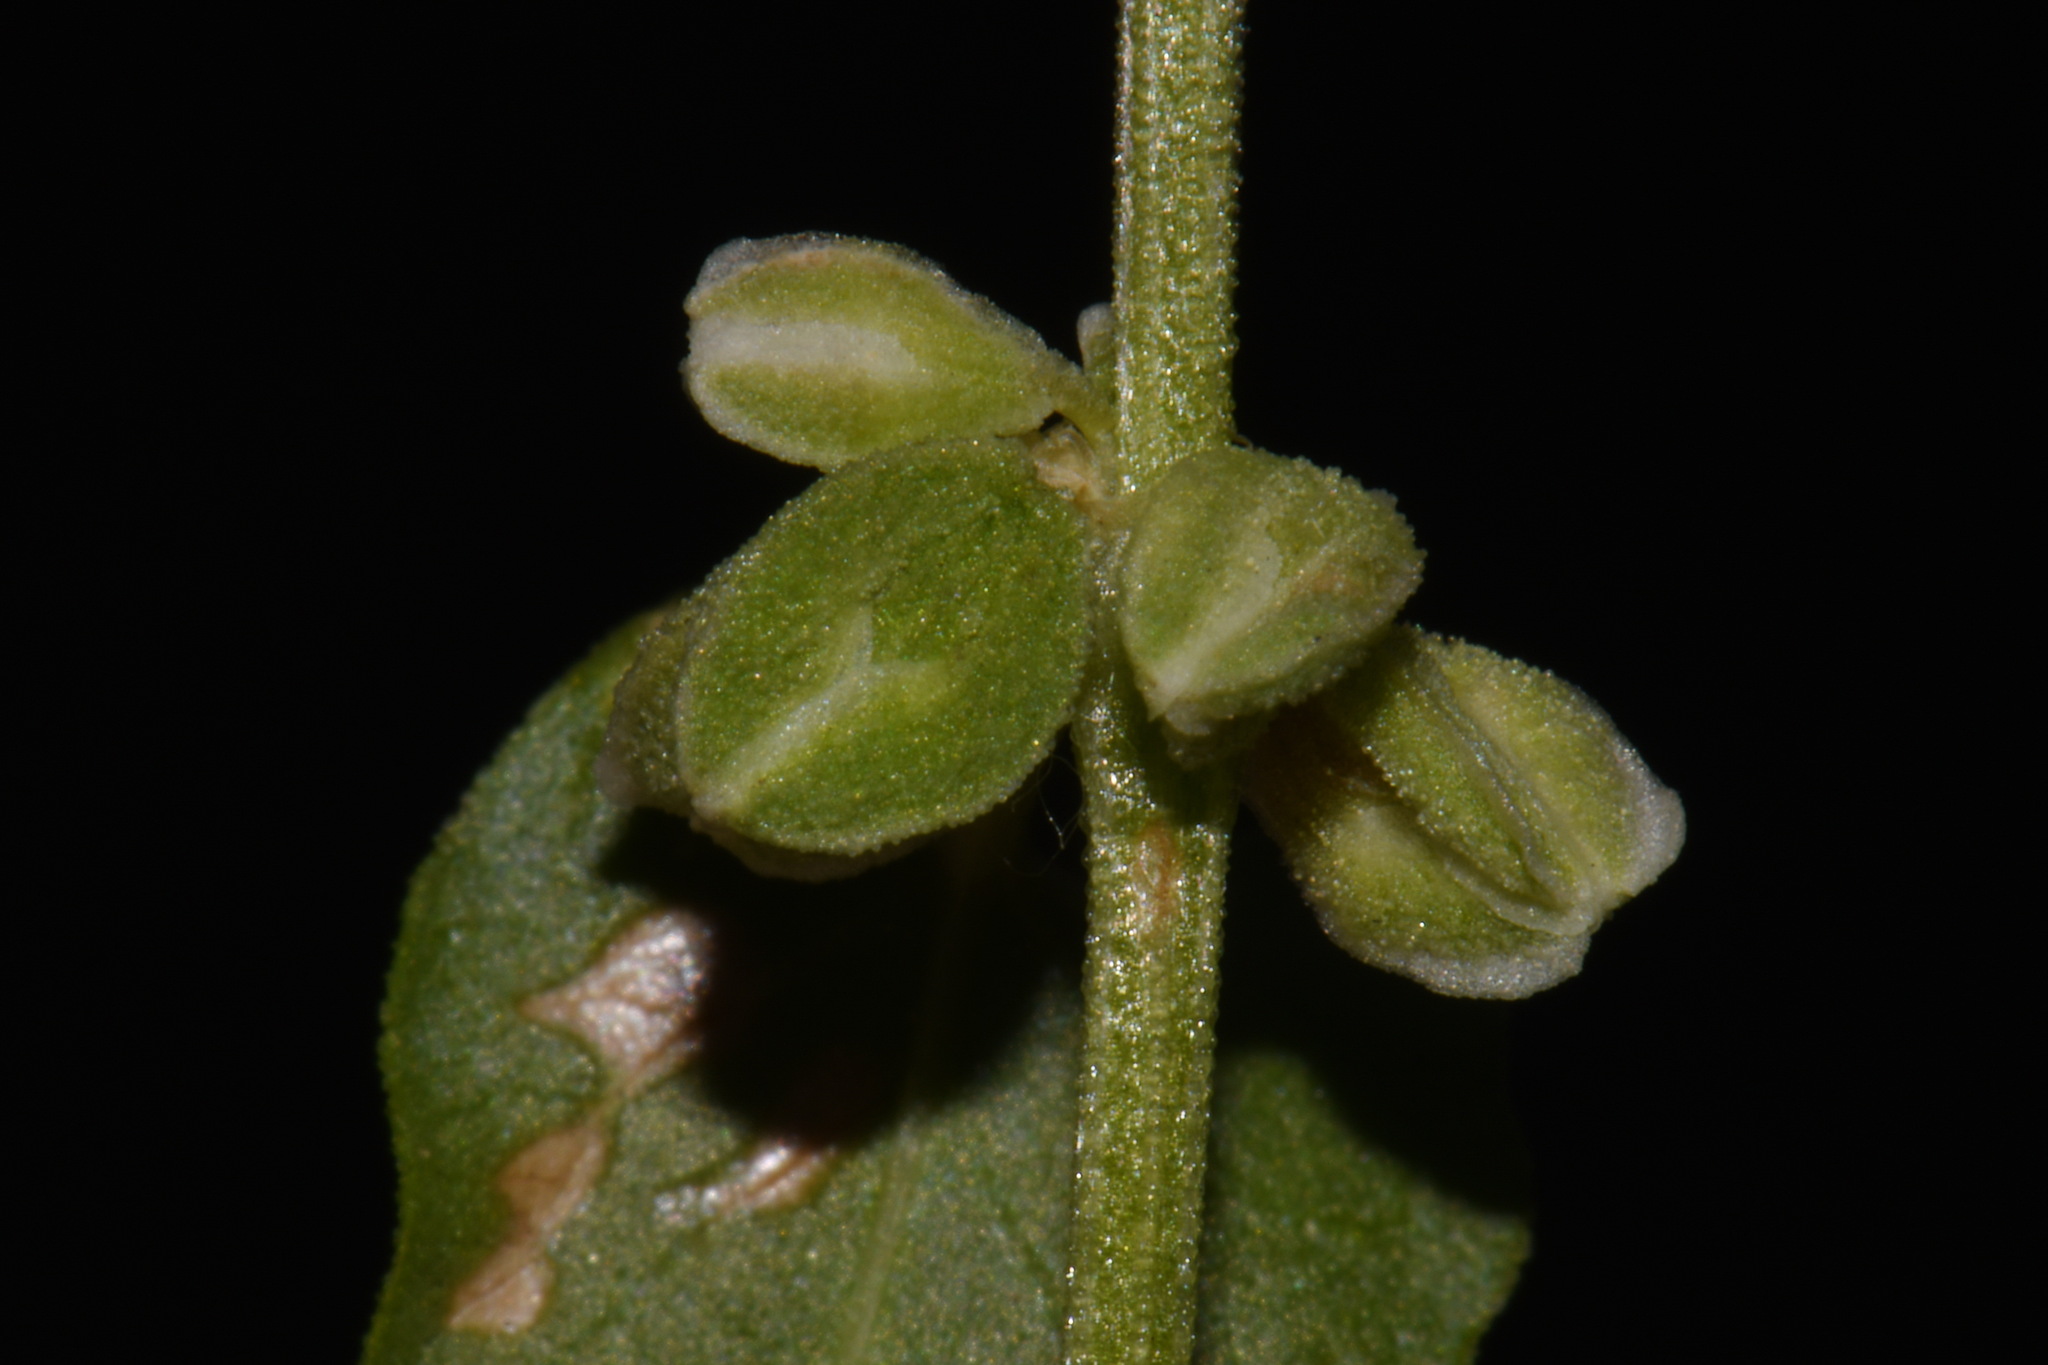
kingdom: Plantae
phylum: Tracheophyta
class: Magnoliopsida
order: Caryophyllales
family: Polygonaceae
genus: Fallopia
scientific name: Fallopia convolvulus
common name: Black bindweed
